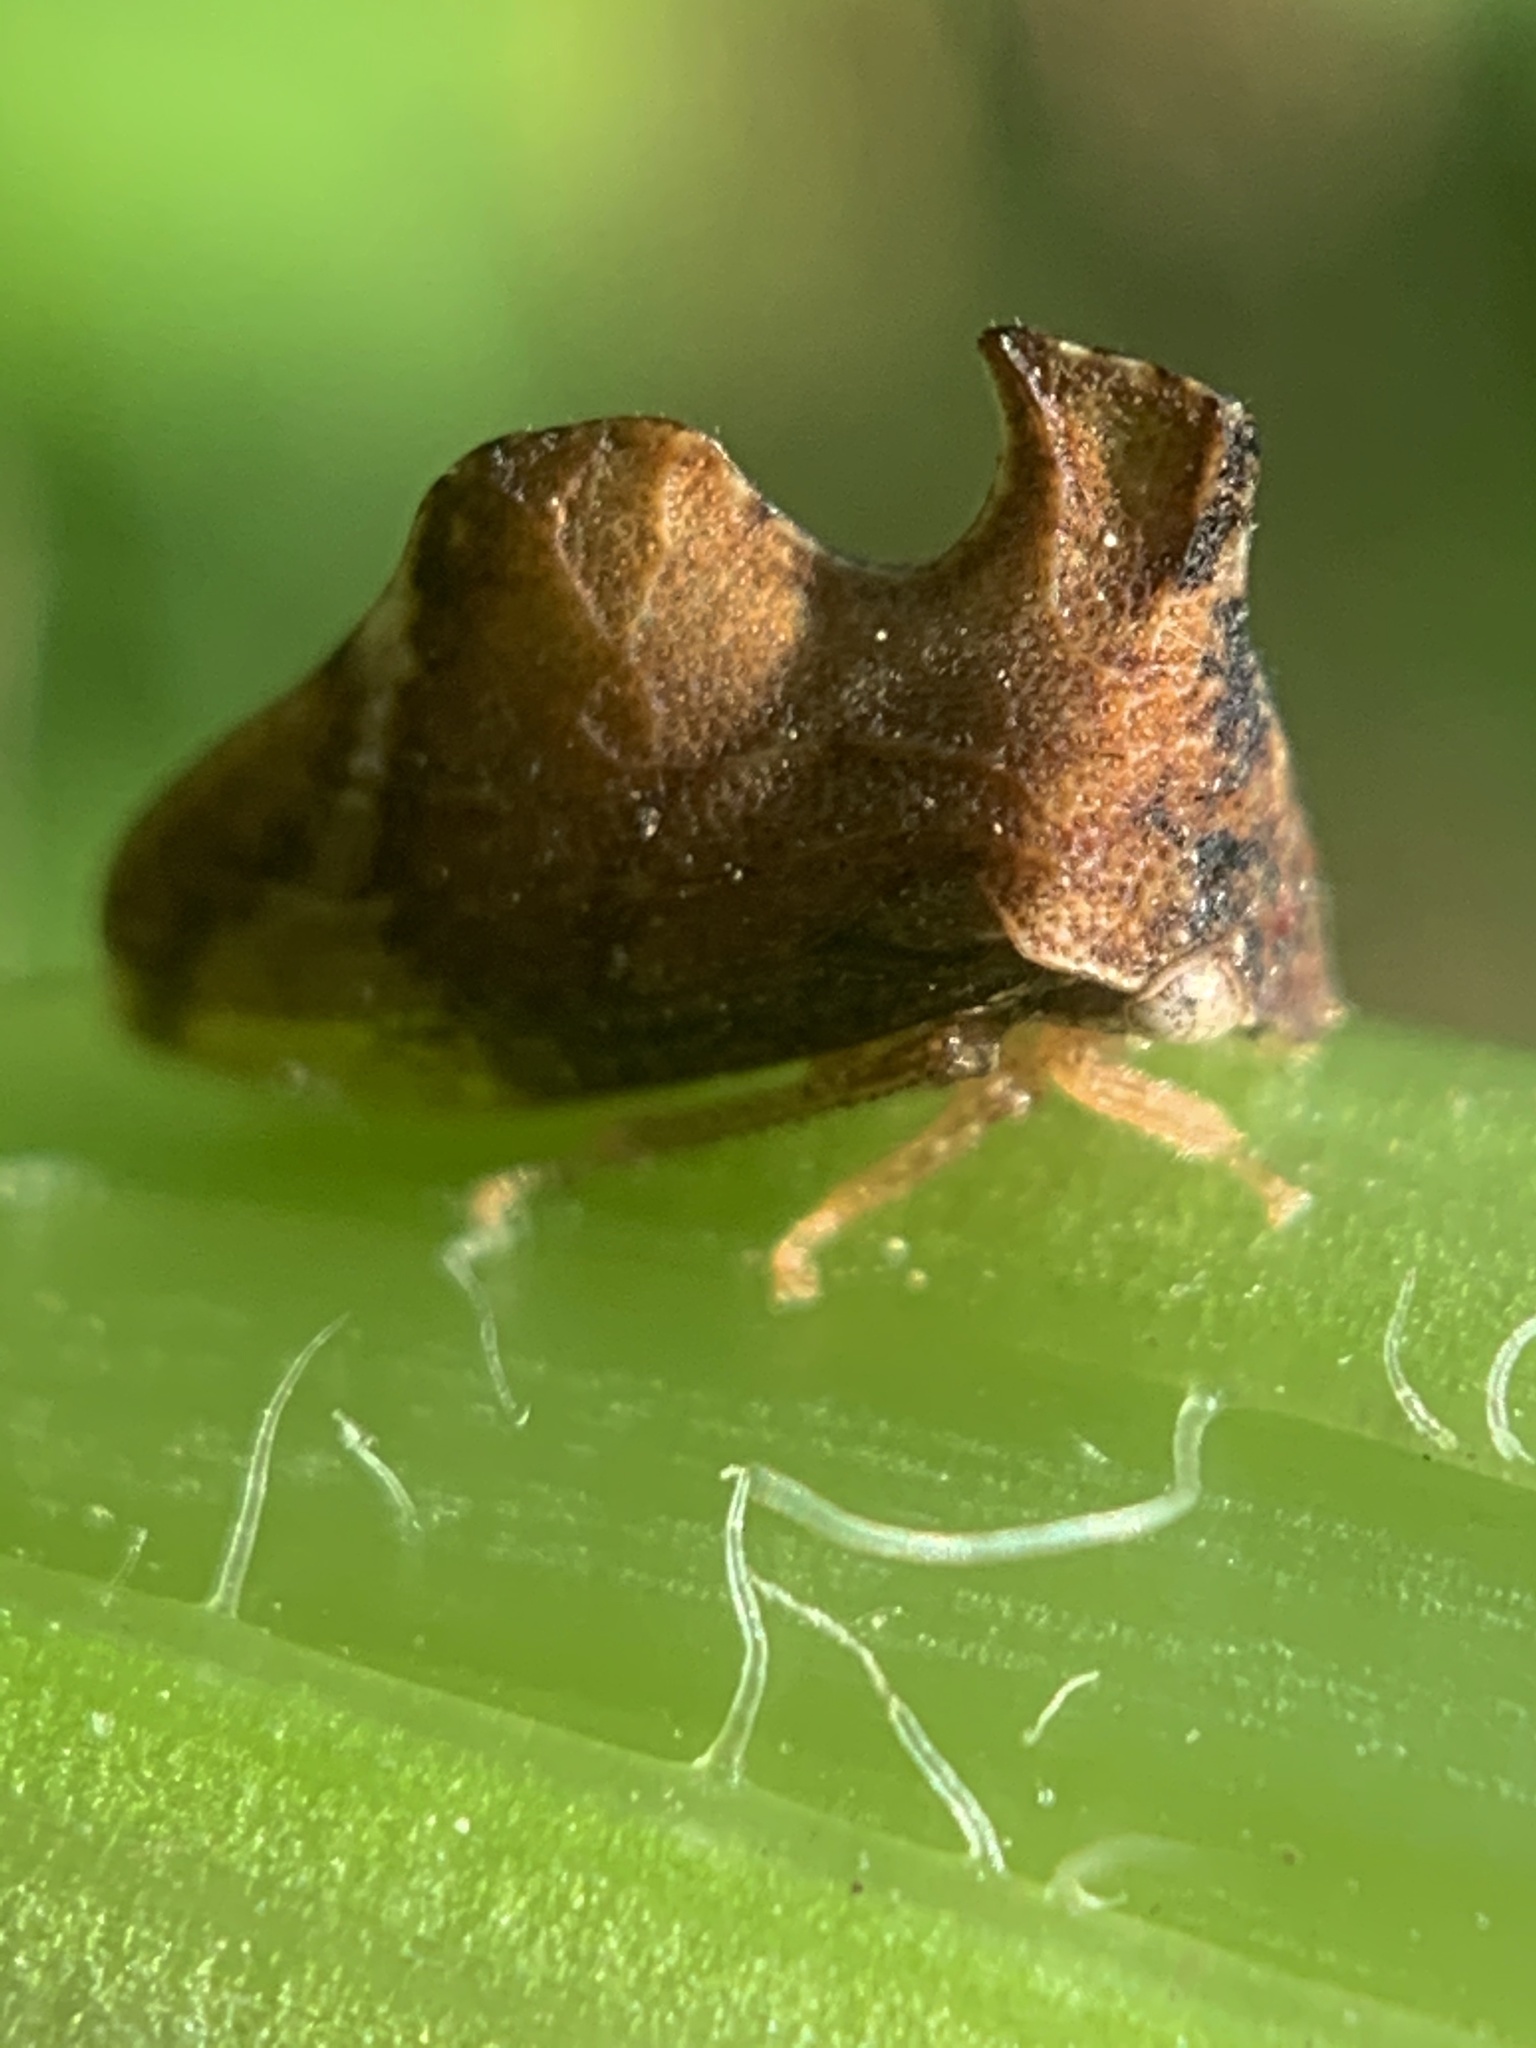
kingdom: Animalia
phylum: Arthropoda
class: Insecta
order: Hemiptera
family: Membracidae
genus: Entylia
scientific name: Entylia carinata
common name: Keeled treehopper
